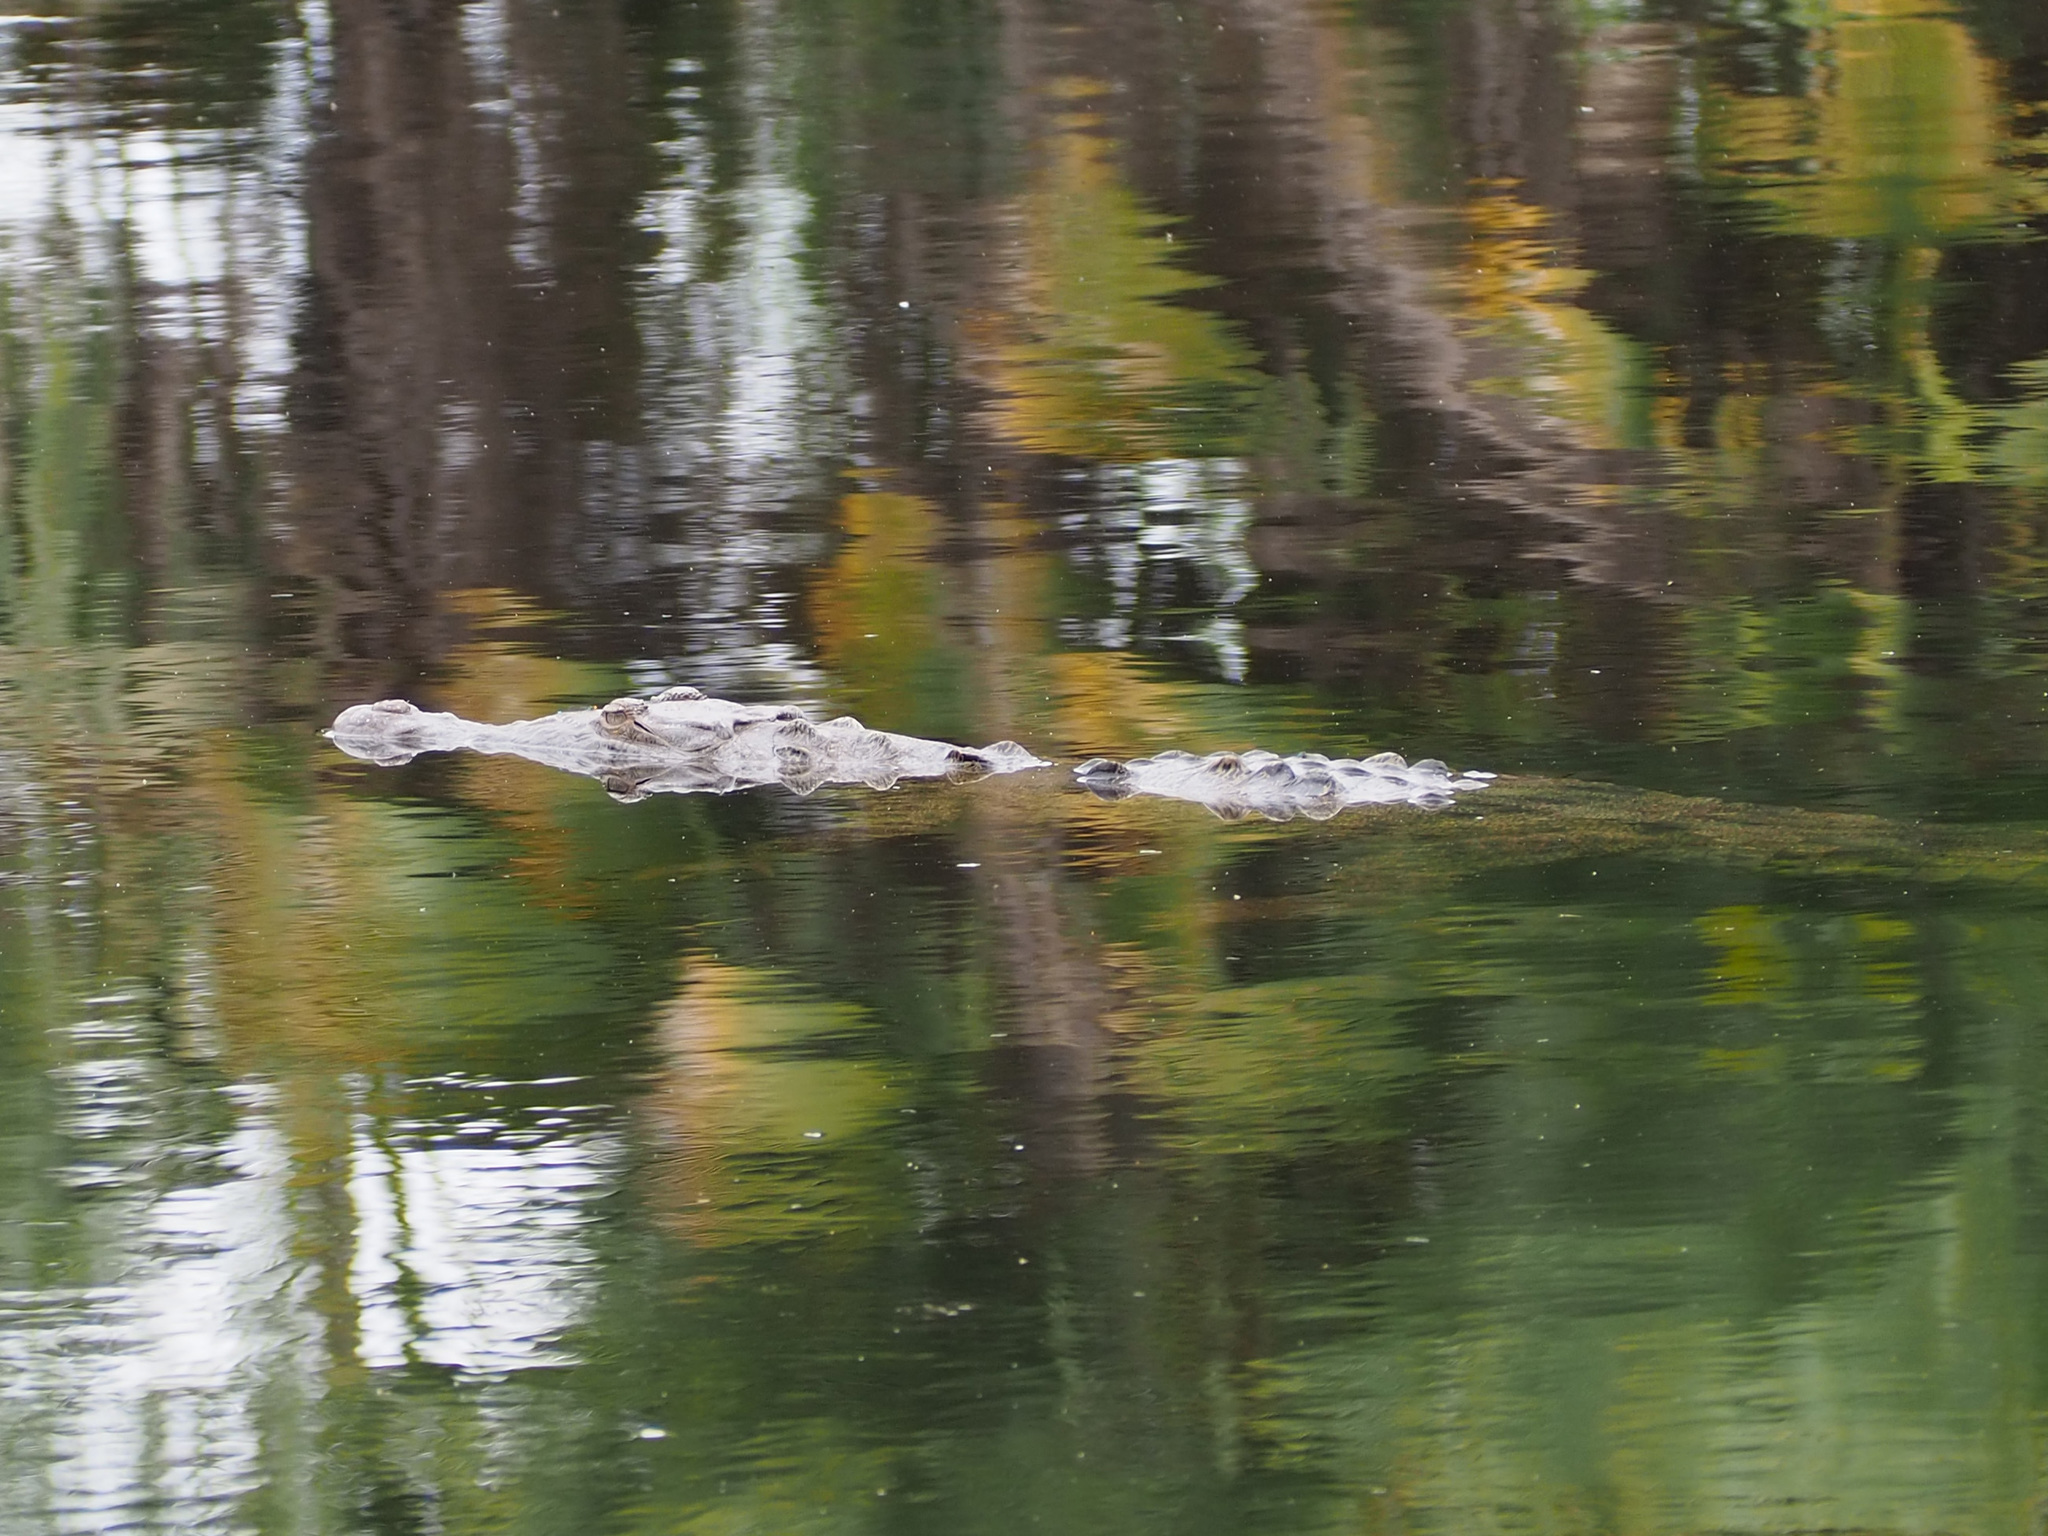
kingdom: Animalia
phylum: Chordata
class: Crocodylia
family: Crocodylidae
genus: Crocodylus
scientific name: Crocodylus acutus
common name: American crocodile
